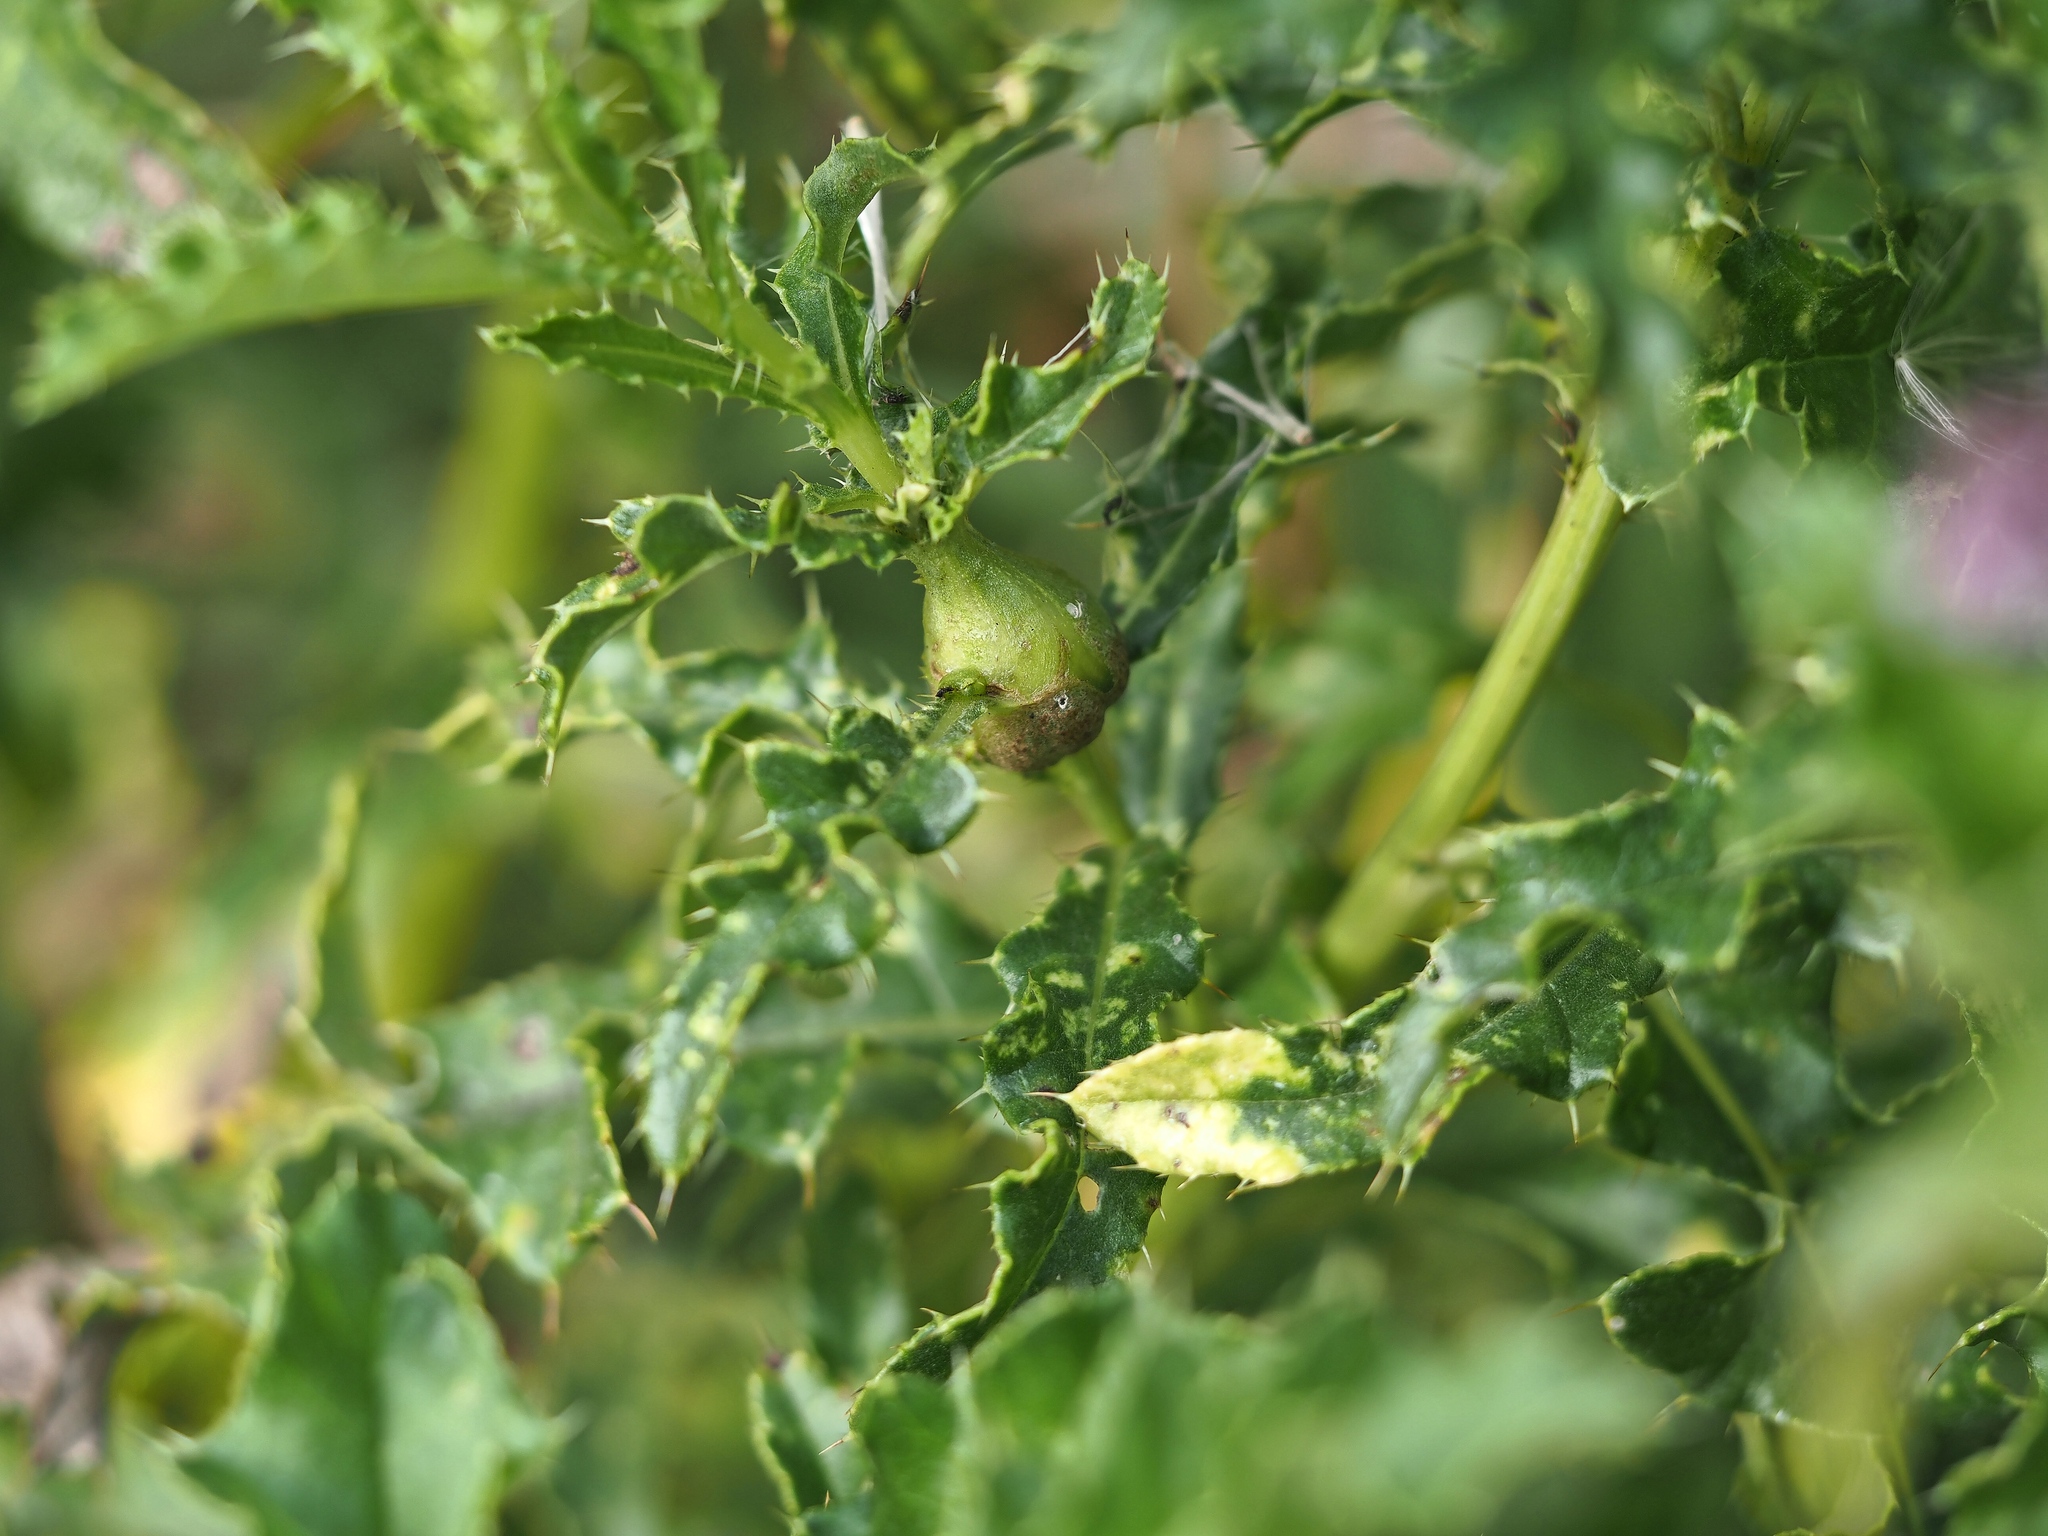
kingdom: Animalia
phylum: Arthropoda
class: Insecta
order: Diptera
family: Tephritidae
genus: Urophora
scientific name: Urophora cardui
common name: Fruit fly
